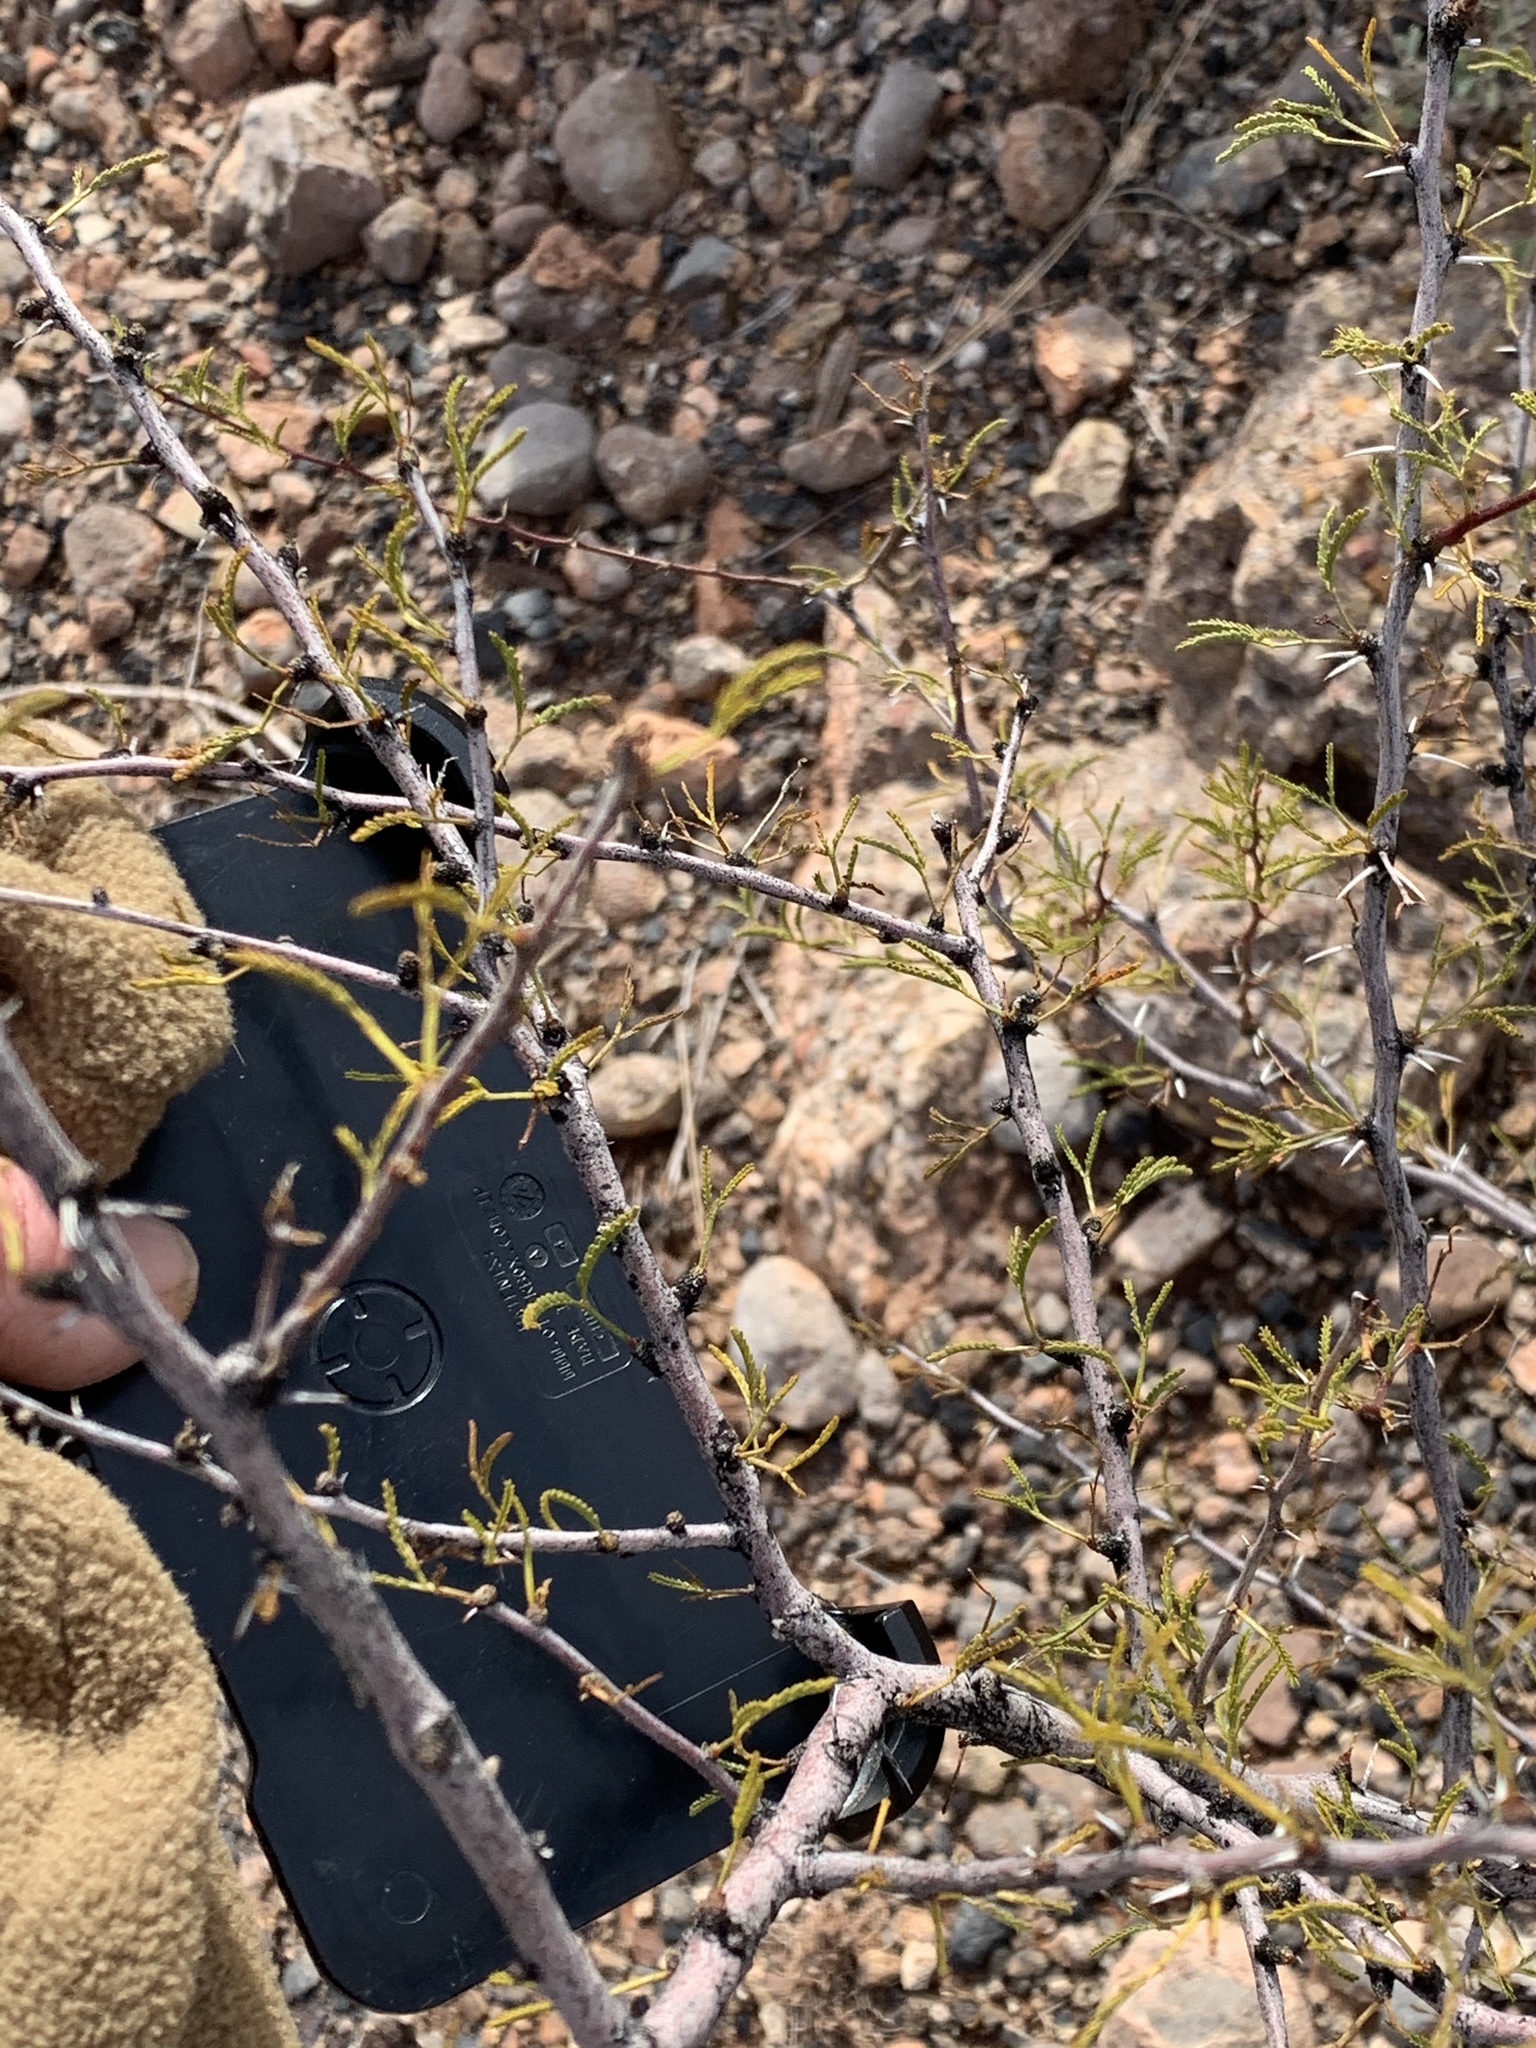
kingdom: Plantae
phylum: Tracheophyta
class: Magnoliopsida
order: Fabales
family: Fabaceae
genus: Vachellia
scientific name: Vachellia constricta
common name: Mescat acacia
